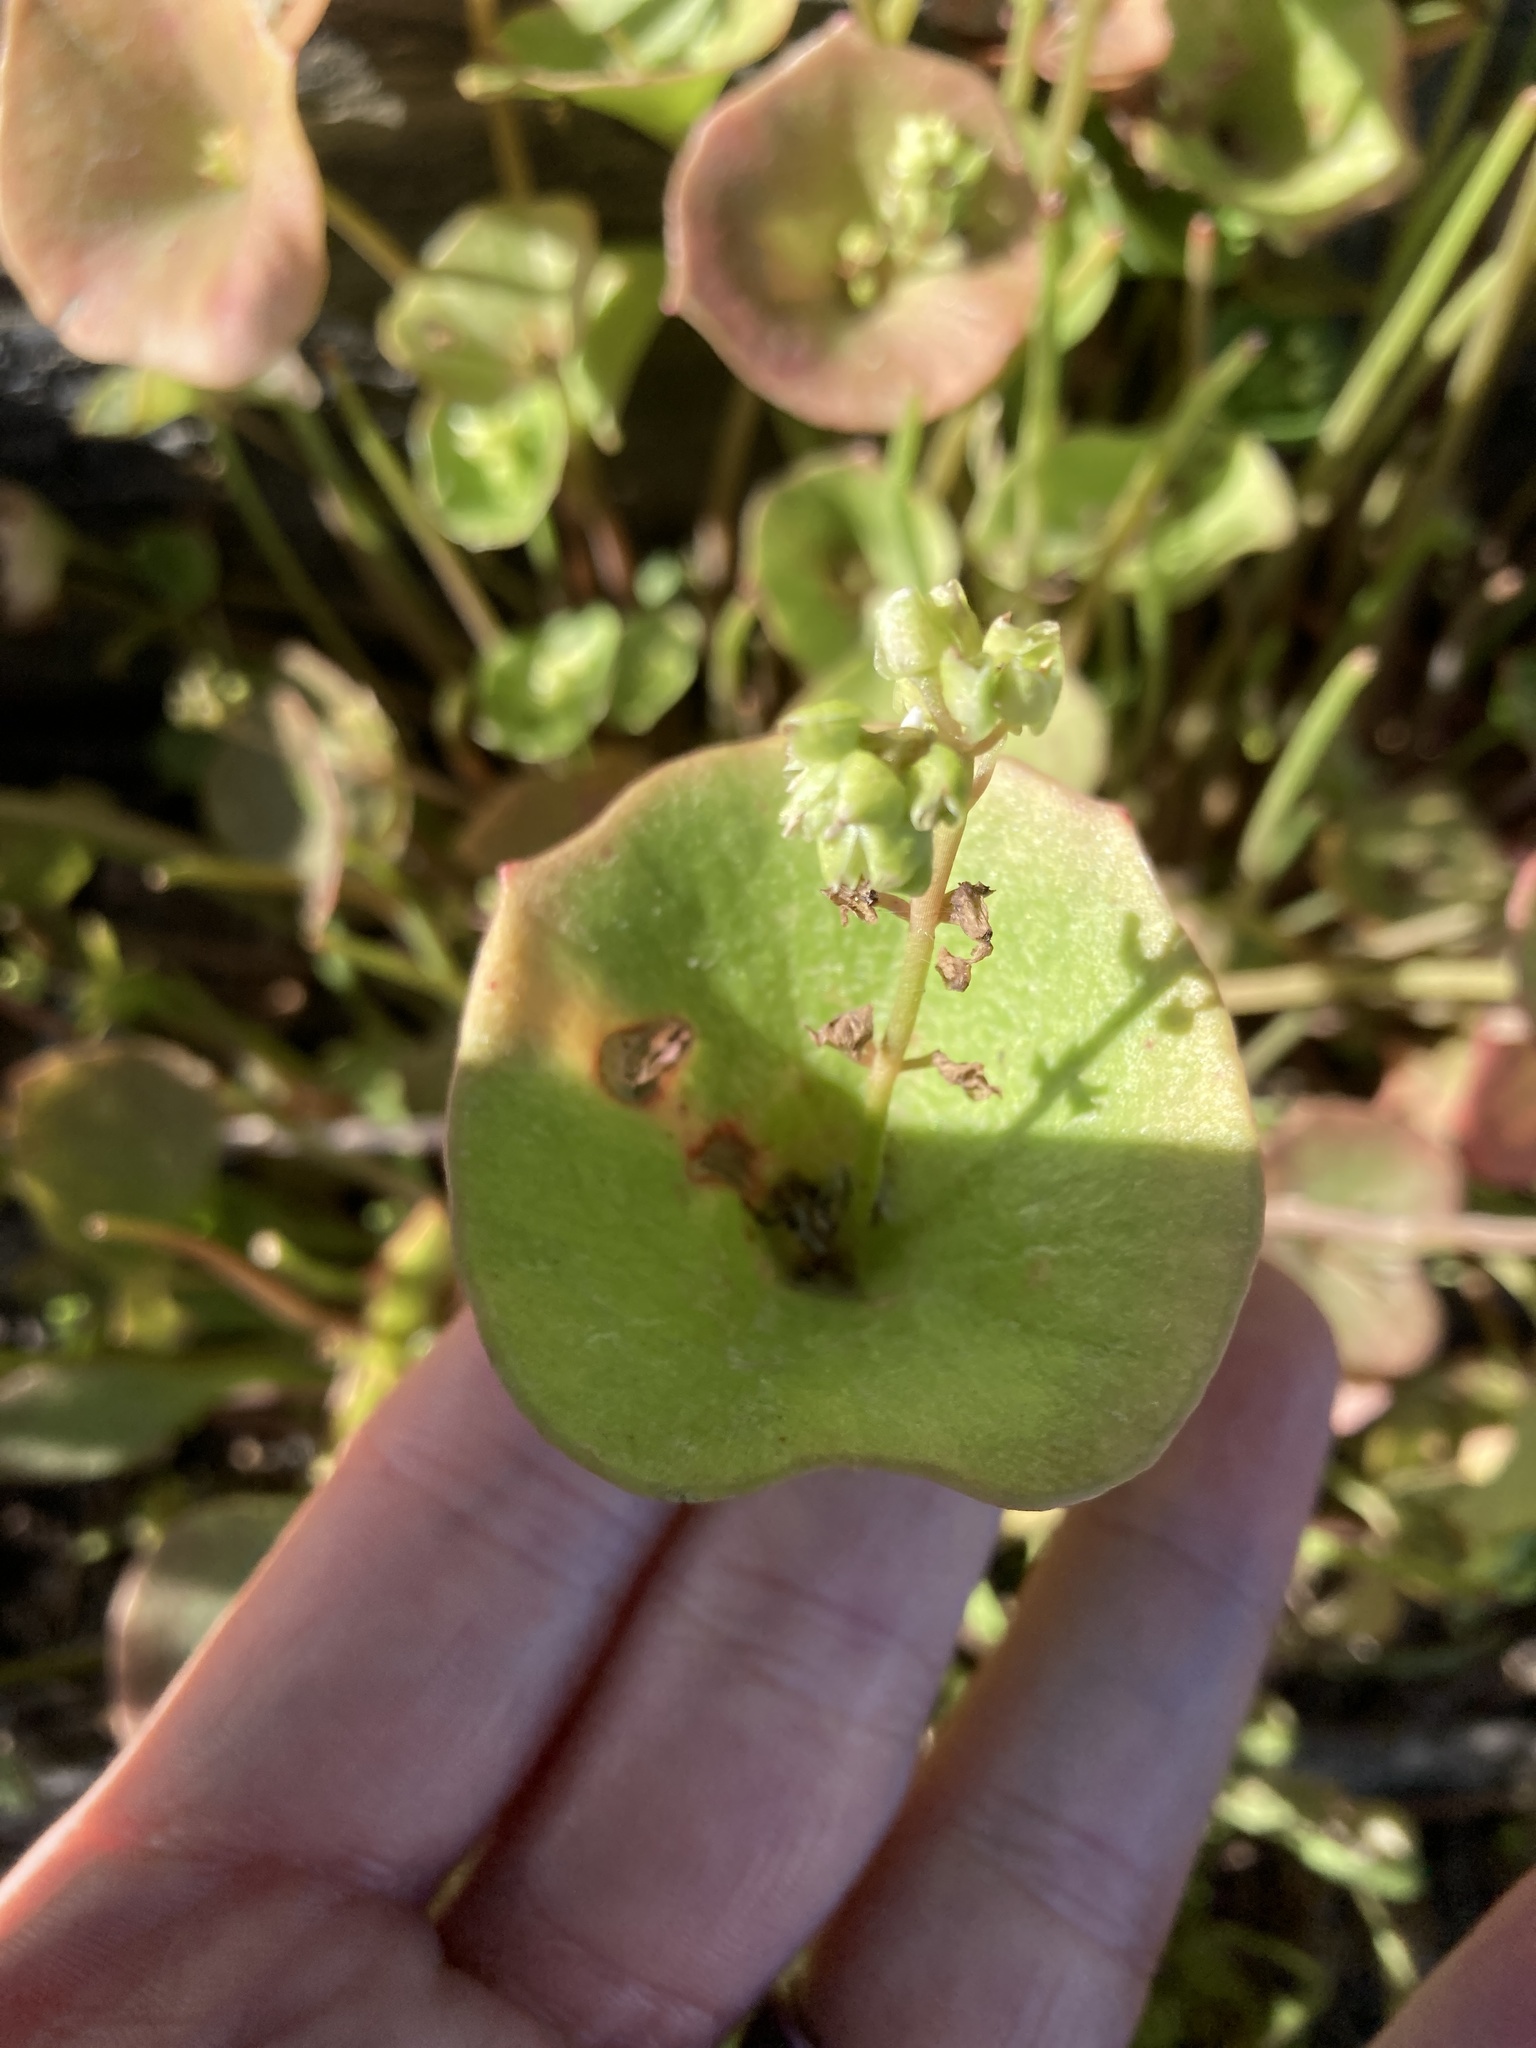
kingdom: Plantae
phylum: Tracheophyta
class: Magnoliopsida
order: Caryophyllales
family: Montiaceae
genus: Claytonia
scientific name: Claytonia perfoliata
